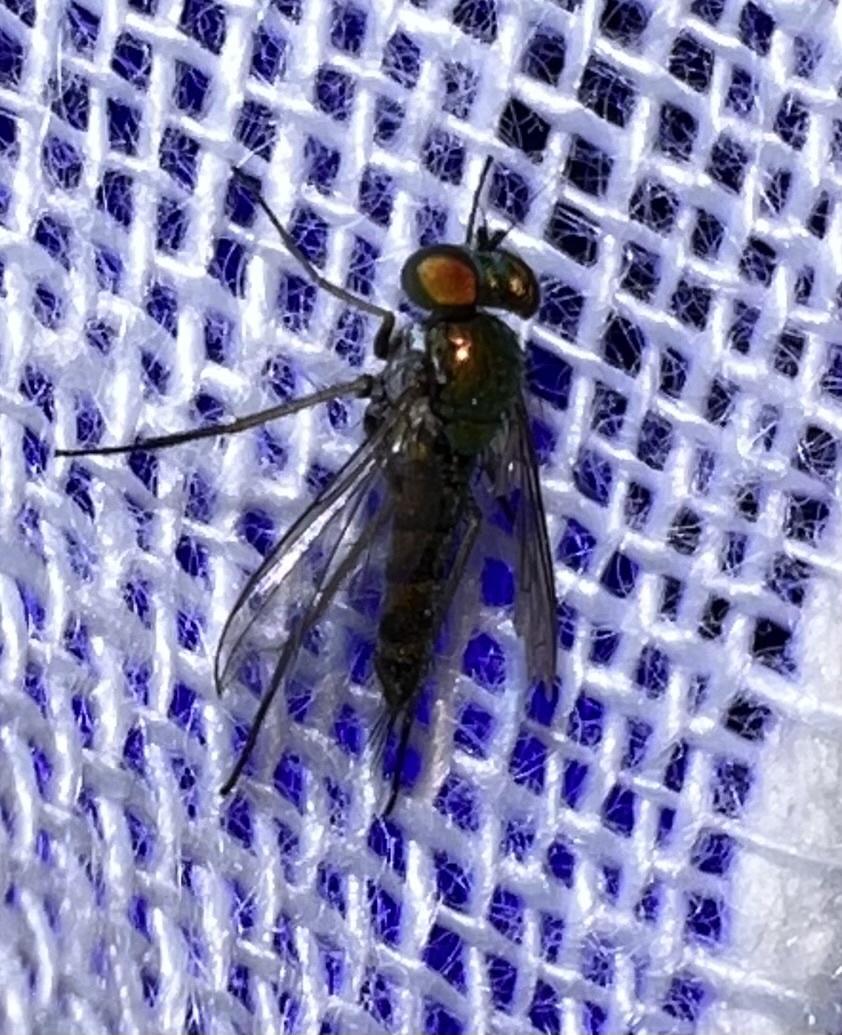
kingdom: Animalia
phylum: Arthropoda
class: Insecta
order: Diptera
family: Dolichopodidae
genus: Condylostylus
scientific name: Condylostylus caudatus
